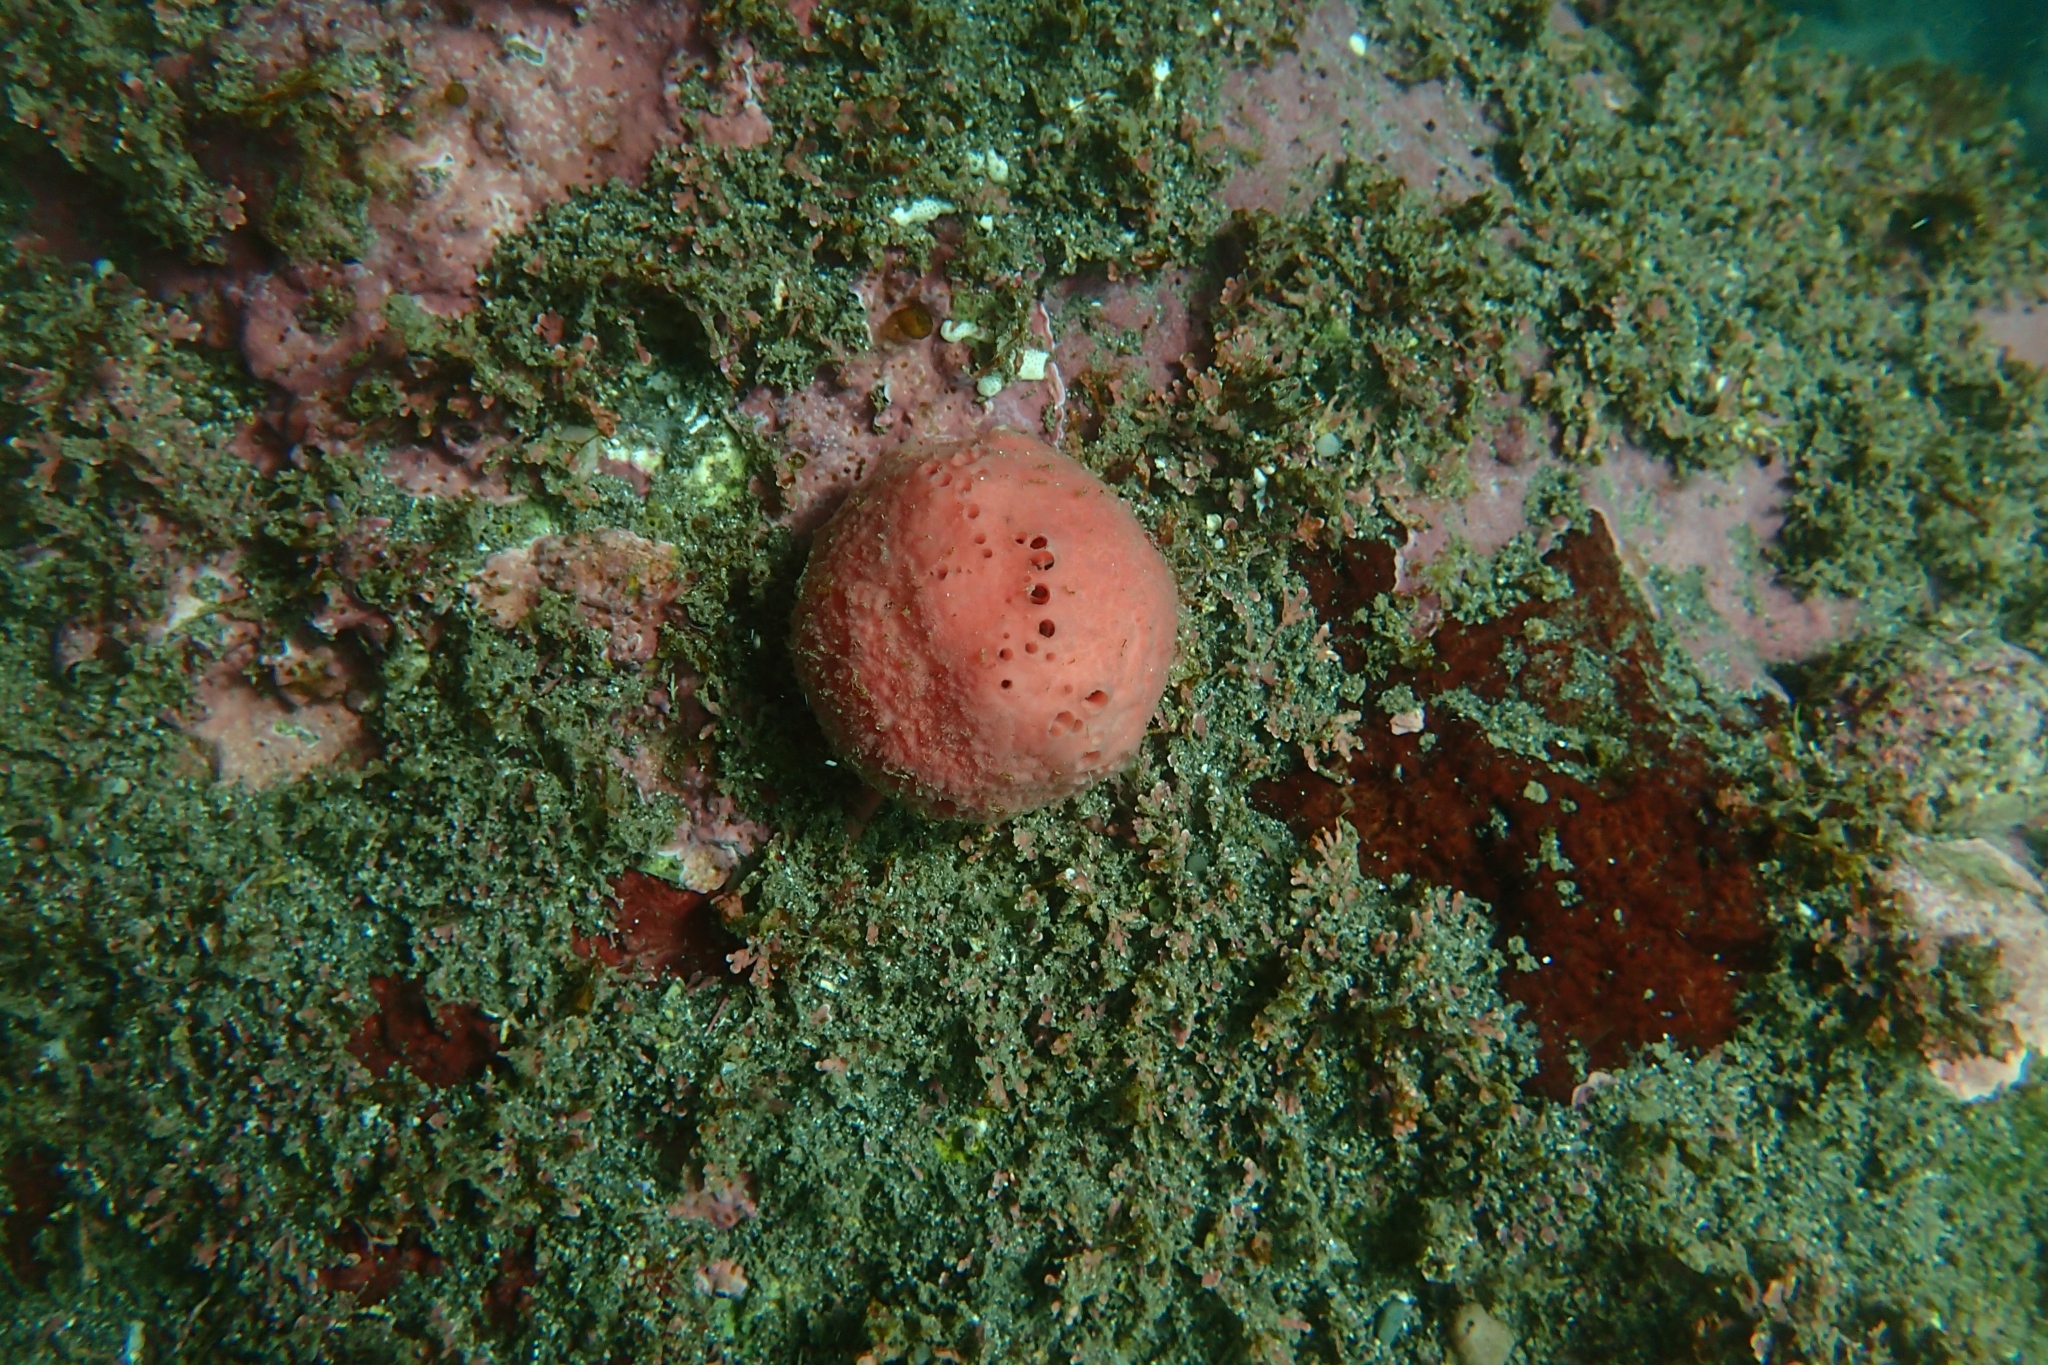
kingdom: Animalia
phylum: Porifera
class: Demospongiae
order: Tethyida
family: Tethyidae
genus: Tethya
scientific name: Tethya bergquistae
